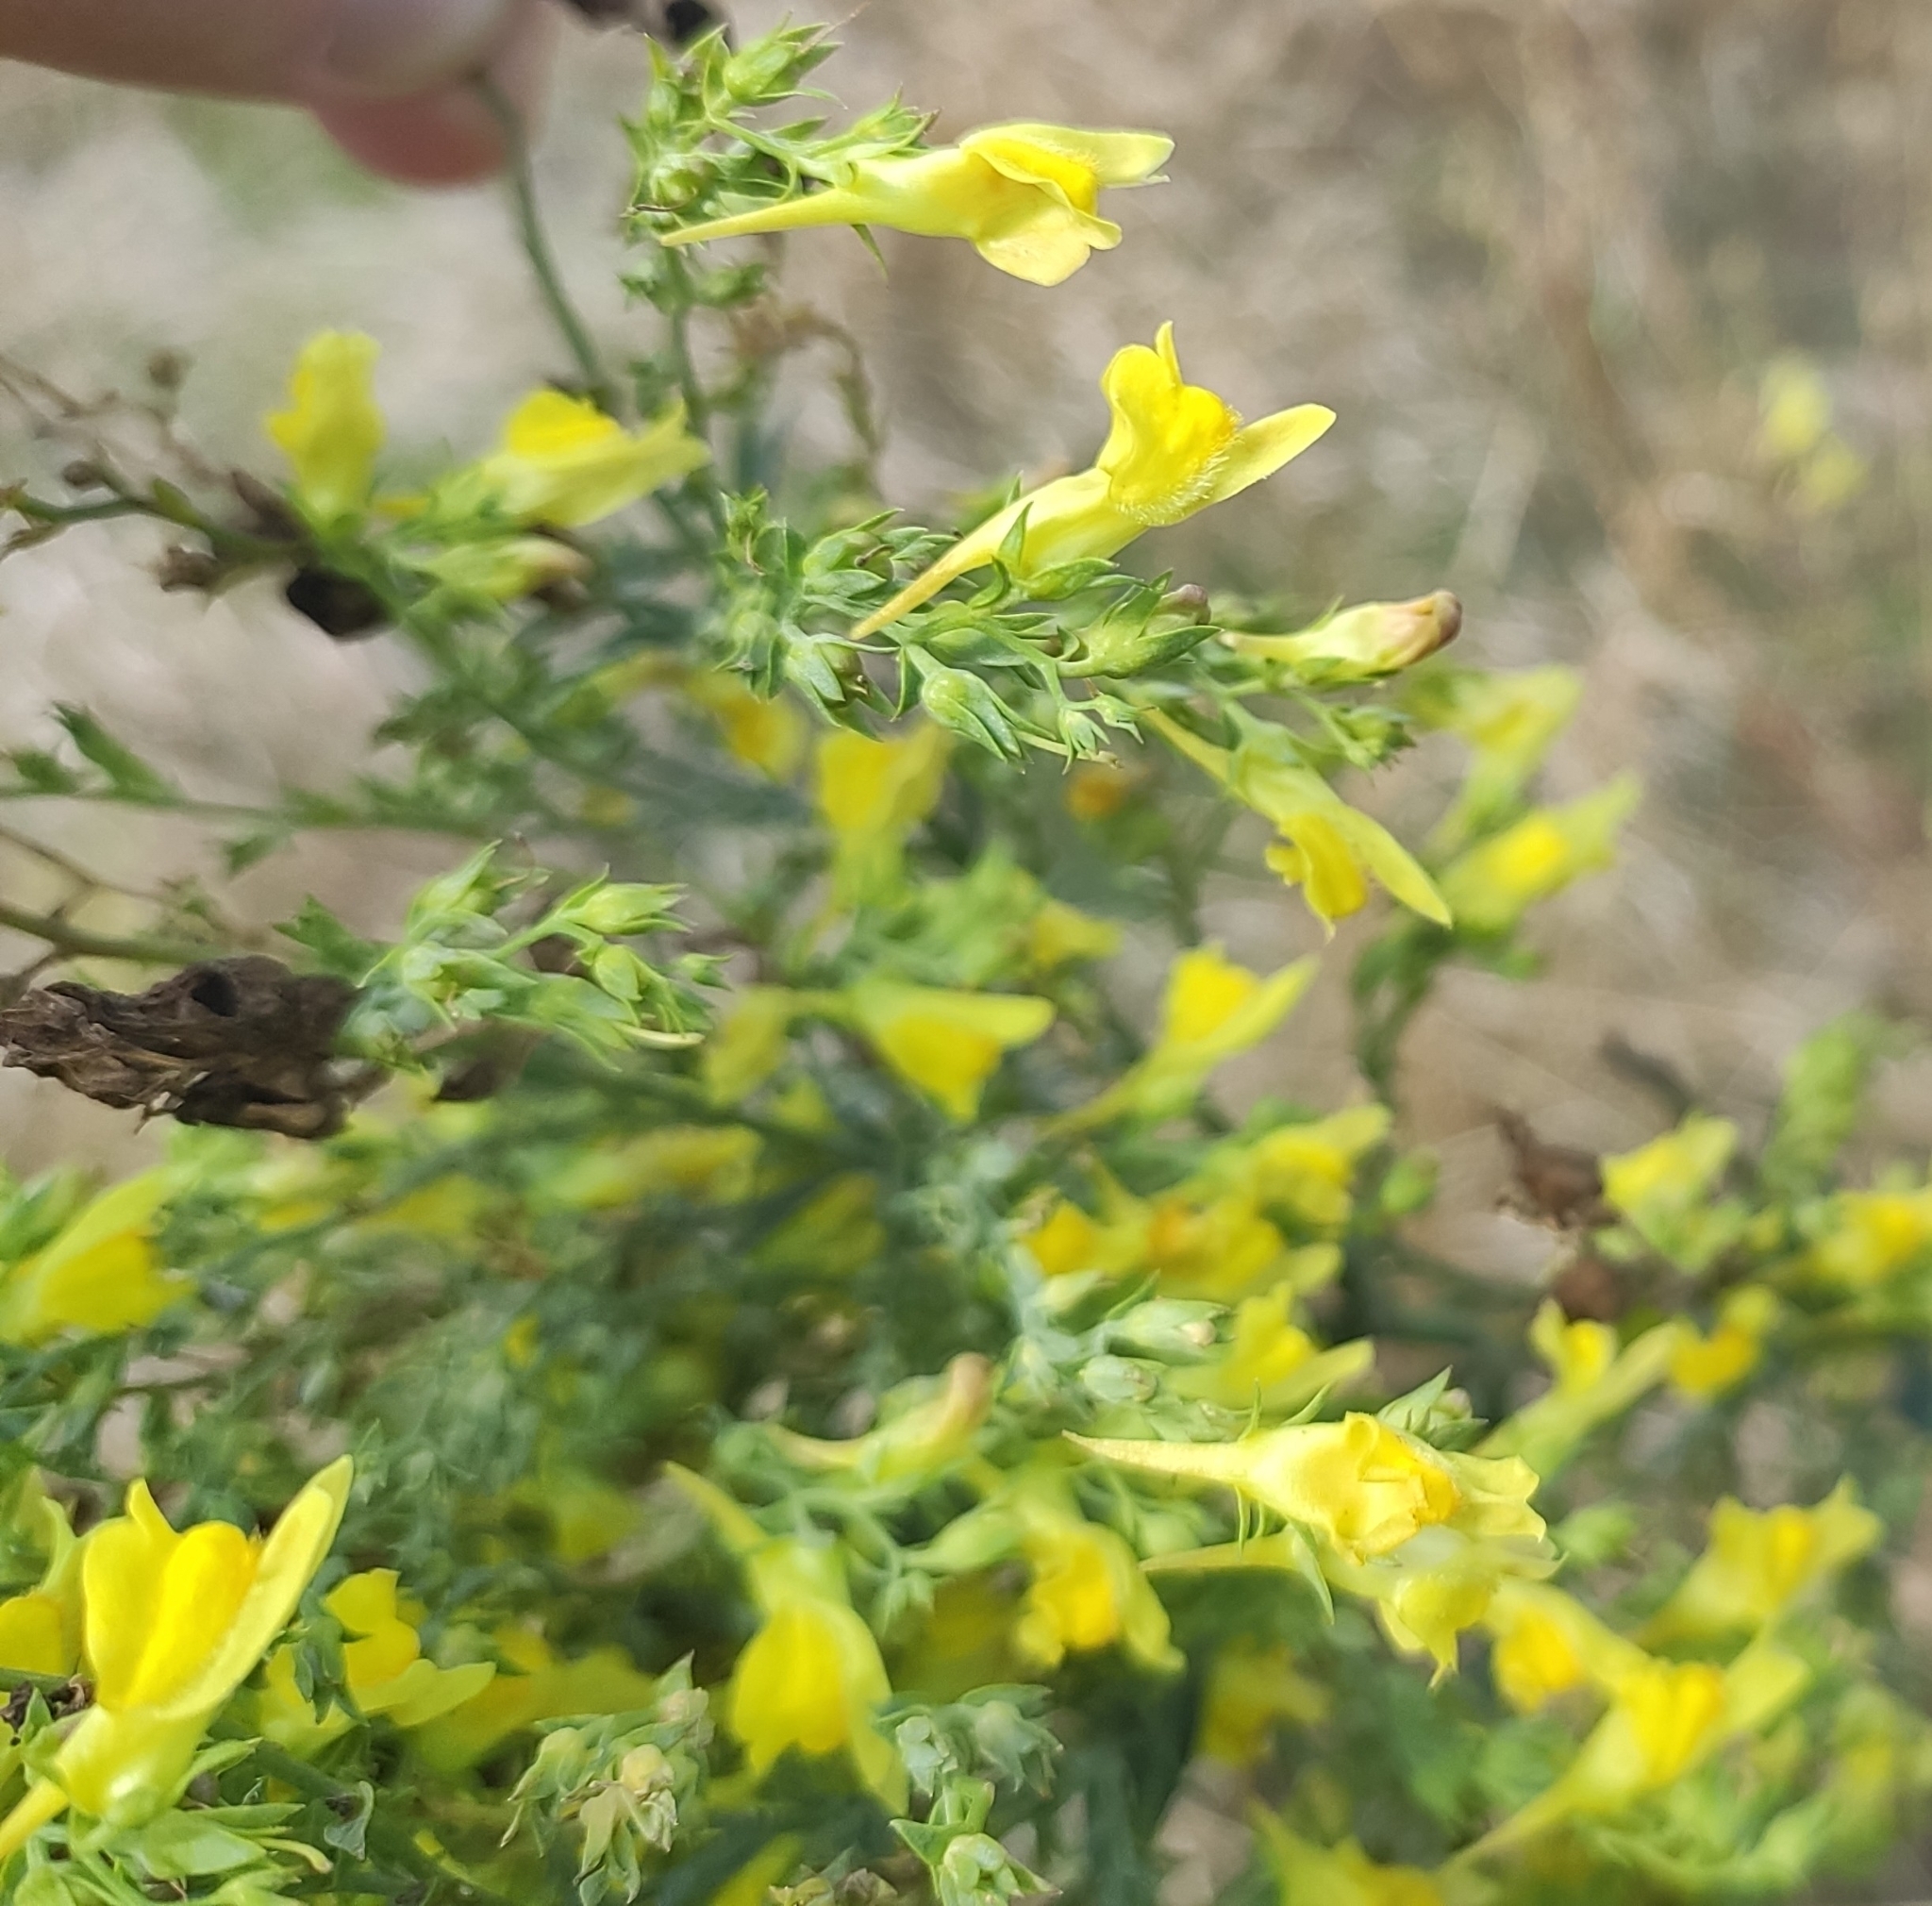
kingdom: Plantae
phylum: Tracheophyta
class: Magnoliopsida
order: Lamiales
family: Plantaginaceae
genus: Linaria
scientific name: Linaria genistifolia
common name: Broomleaf toadflax
